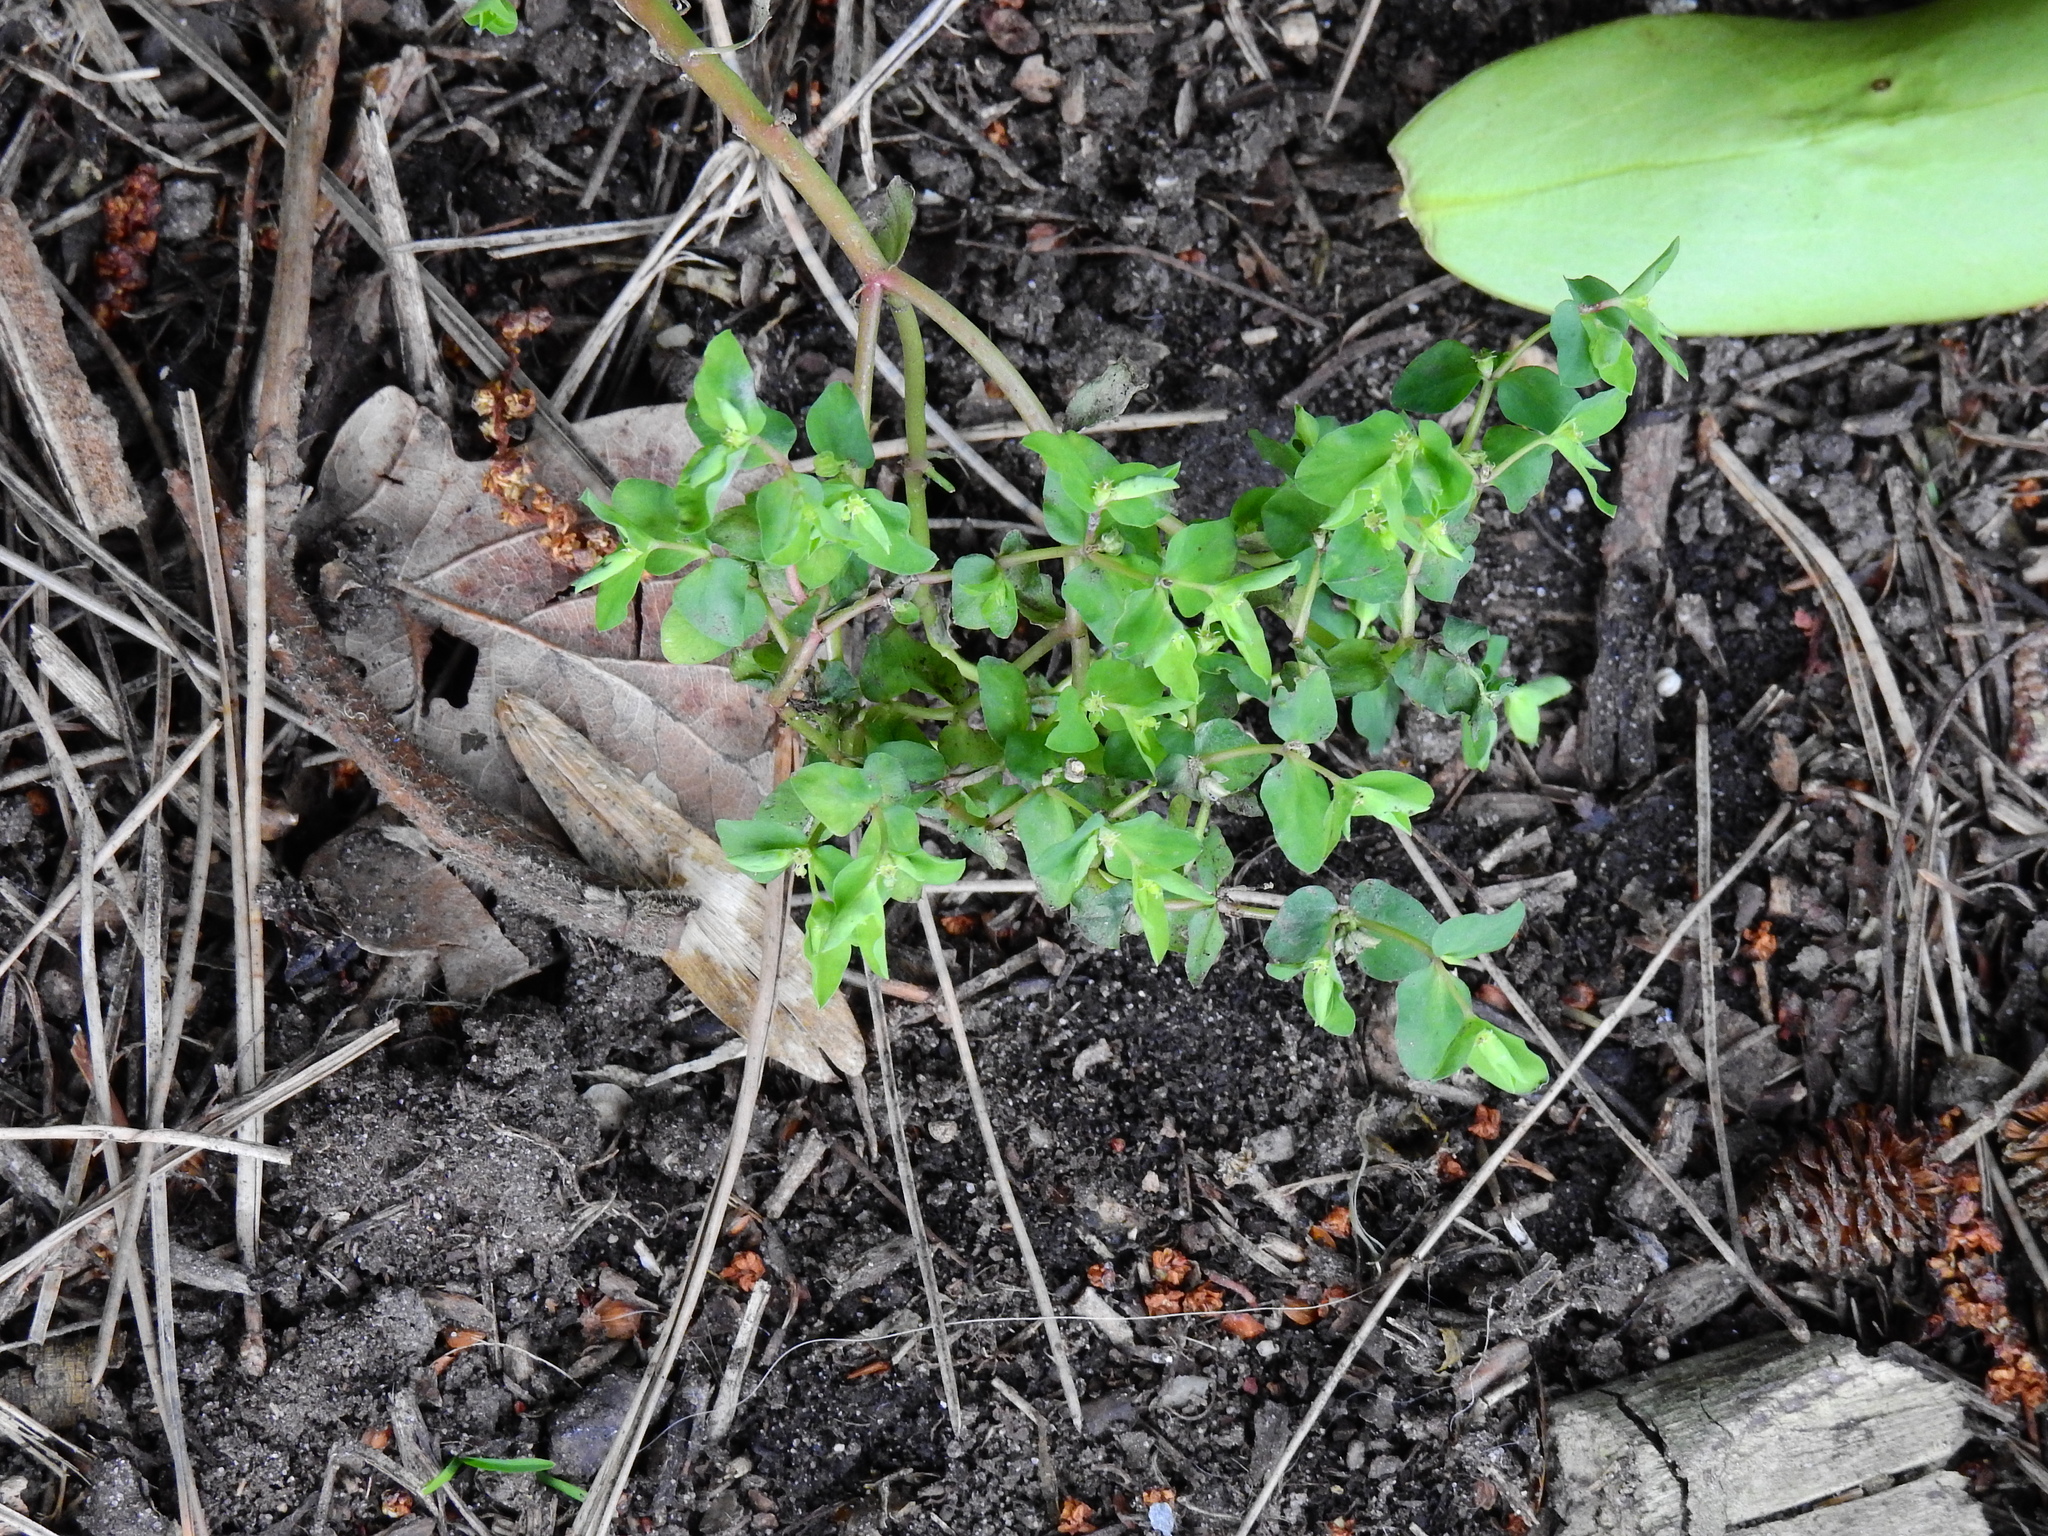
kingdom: Plantae
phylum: Tracheophyta
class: Magnoliopsida
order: Malpighiales
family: Euphorbiaceae
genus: Euphorbia
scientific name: Euphorbia peplus
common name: Petty spurge
